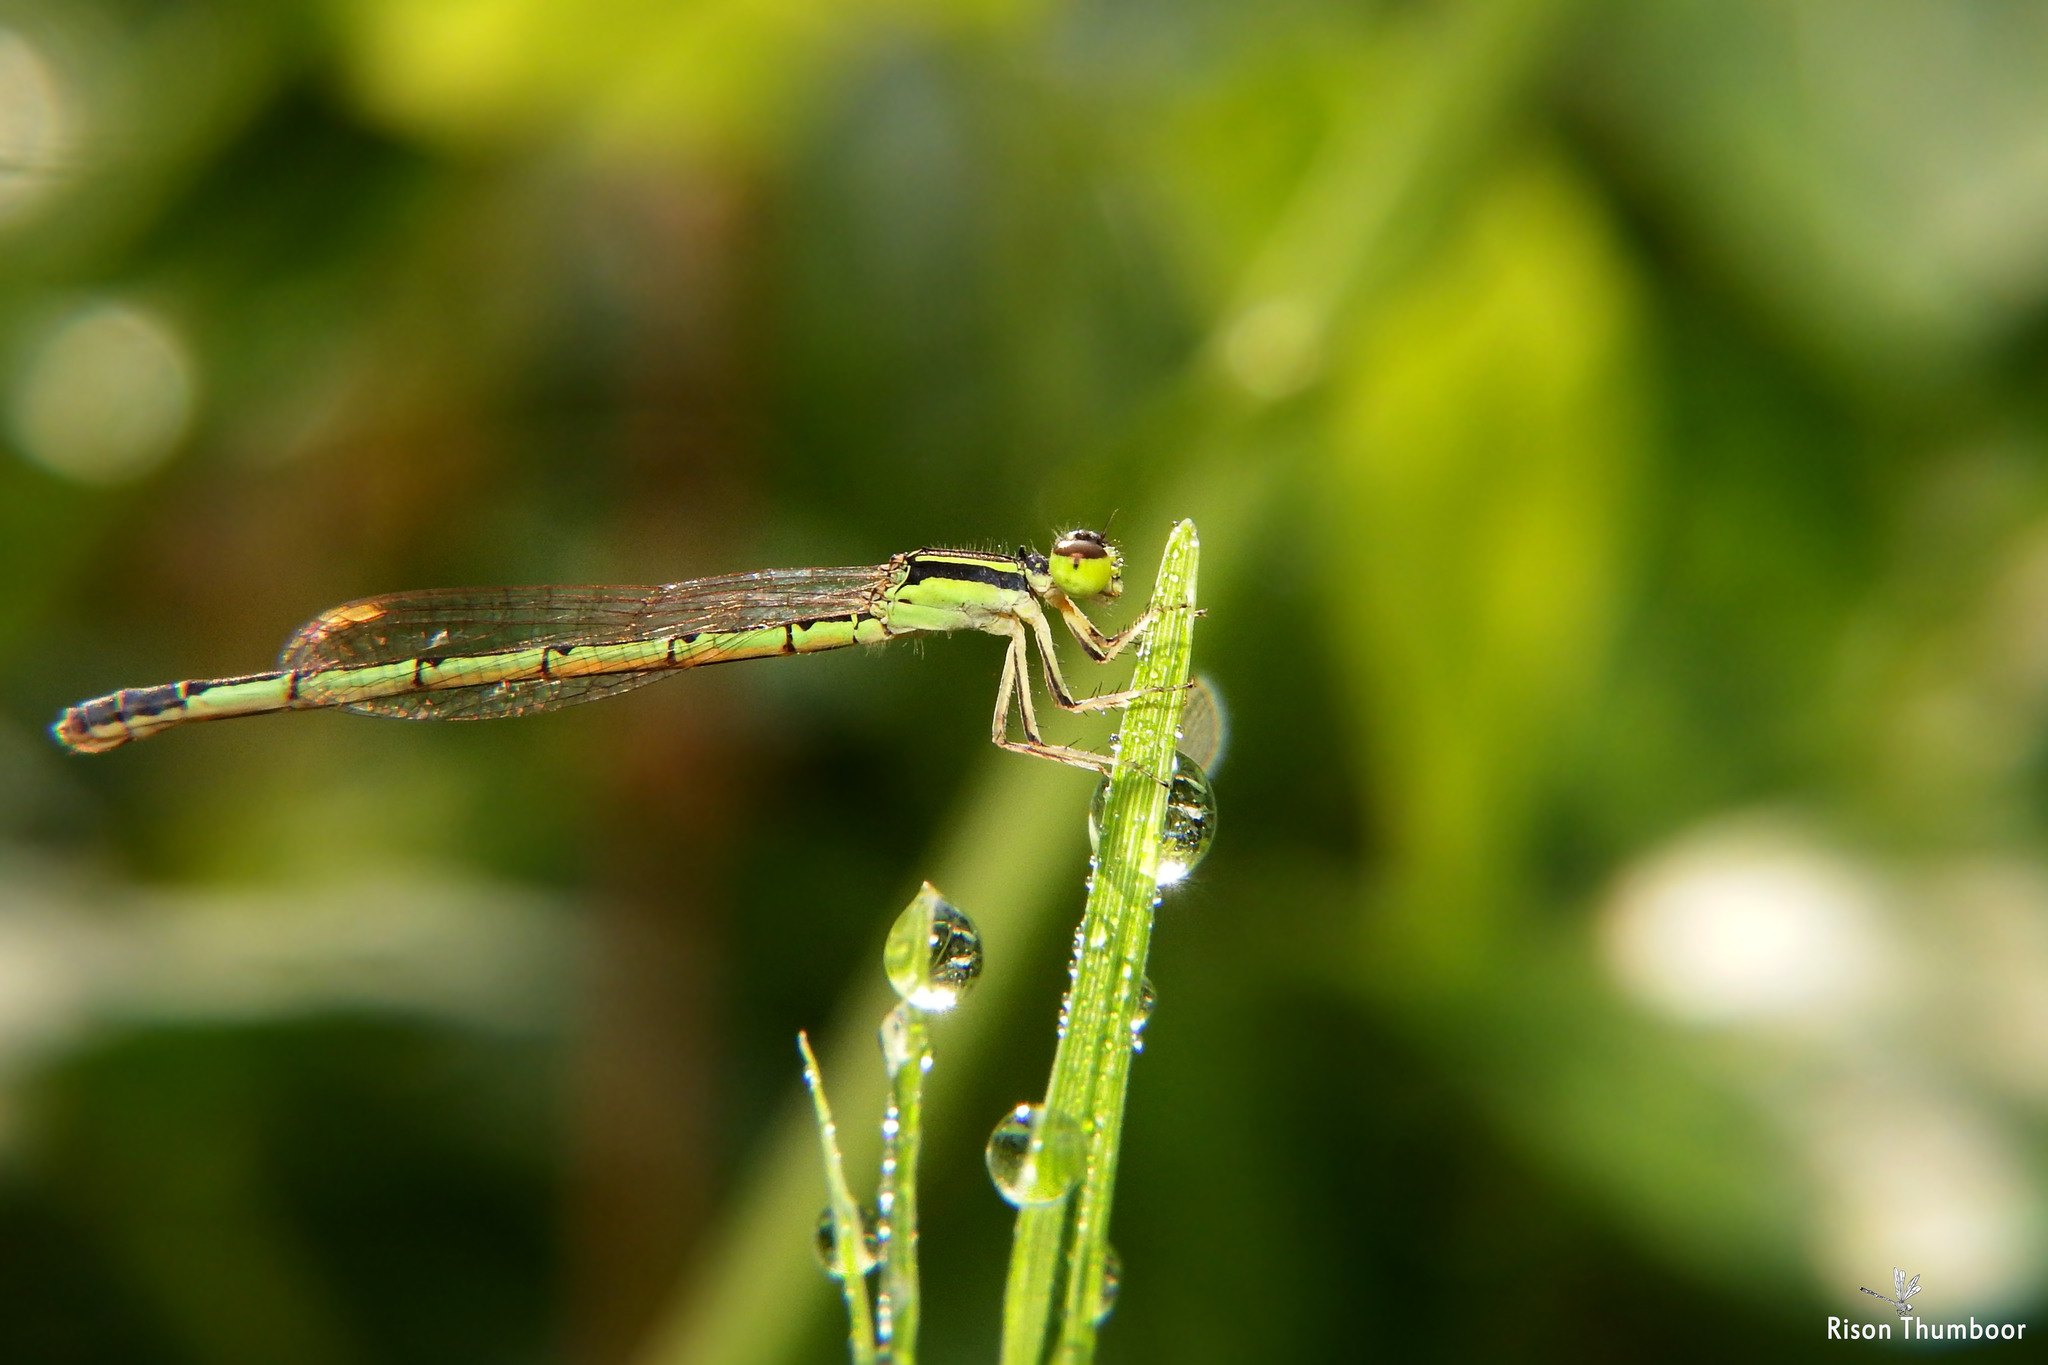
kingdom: Animalia
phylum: Arthropoda
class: Insecta
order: Odonata
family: Coenagrionidae
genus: Agriocnemis
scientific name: Agriocnemis keralensis
